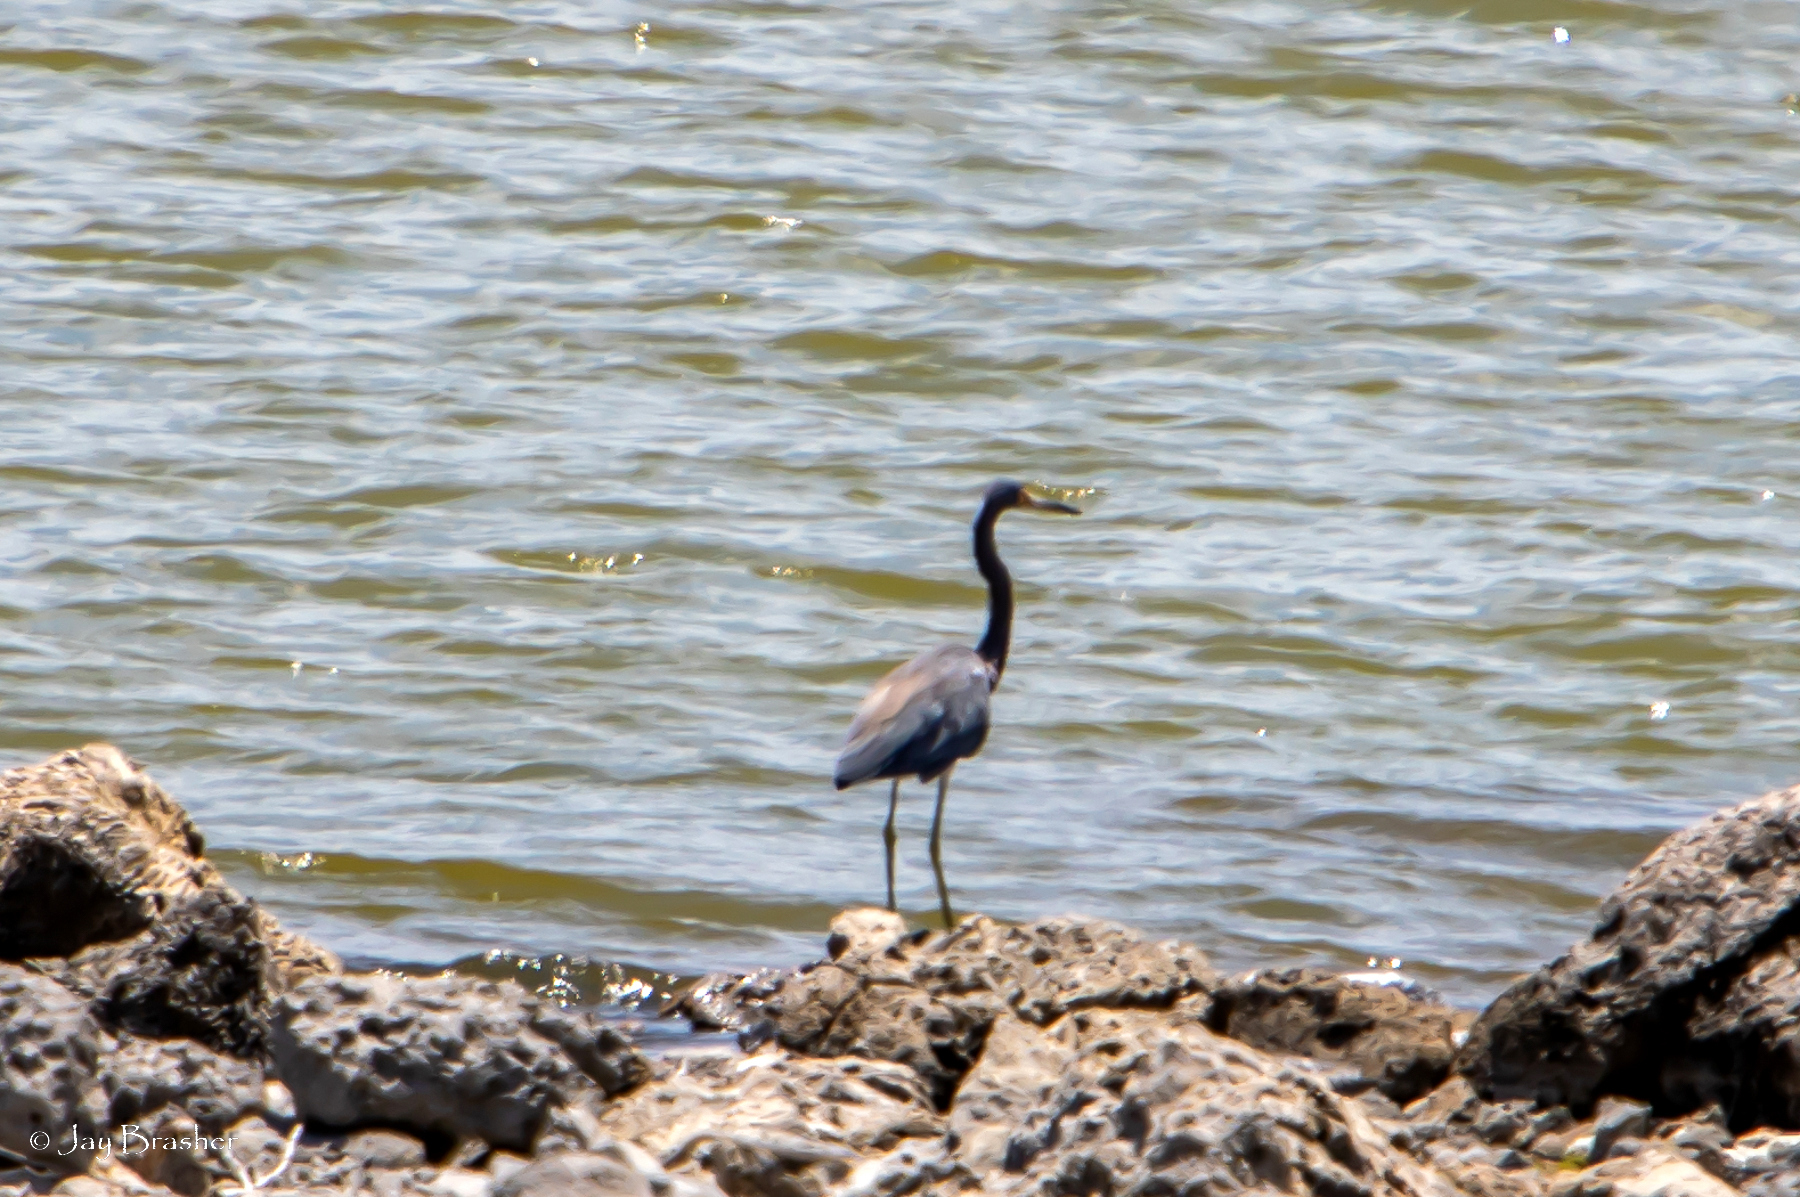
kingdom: Animalia
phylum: Chordata
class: Aves
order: Pelecaniformes
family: Ardeidae
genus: Egretta
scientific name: Egretta tricolor
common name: Tricolored heron
